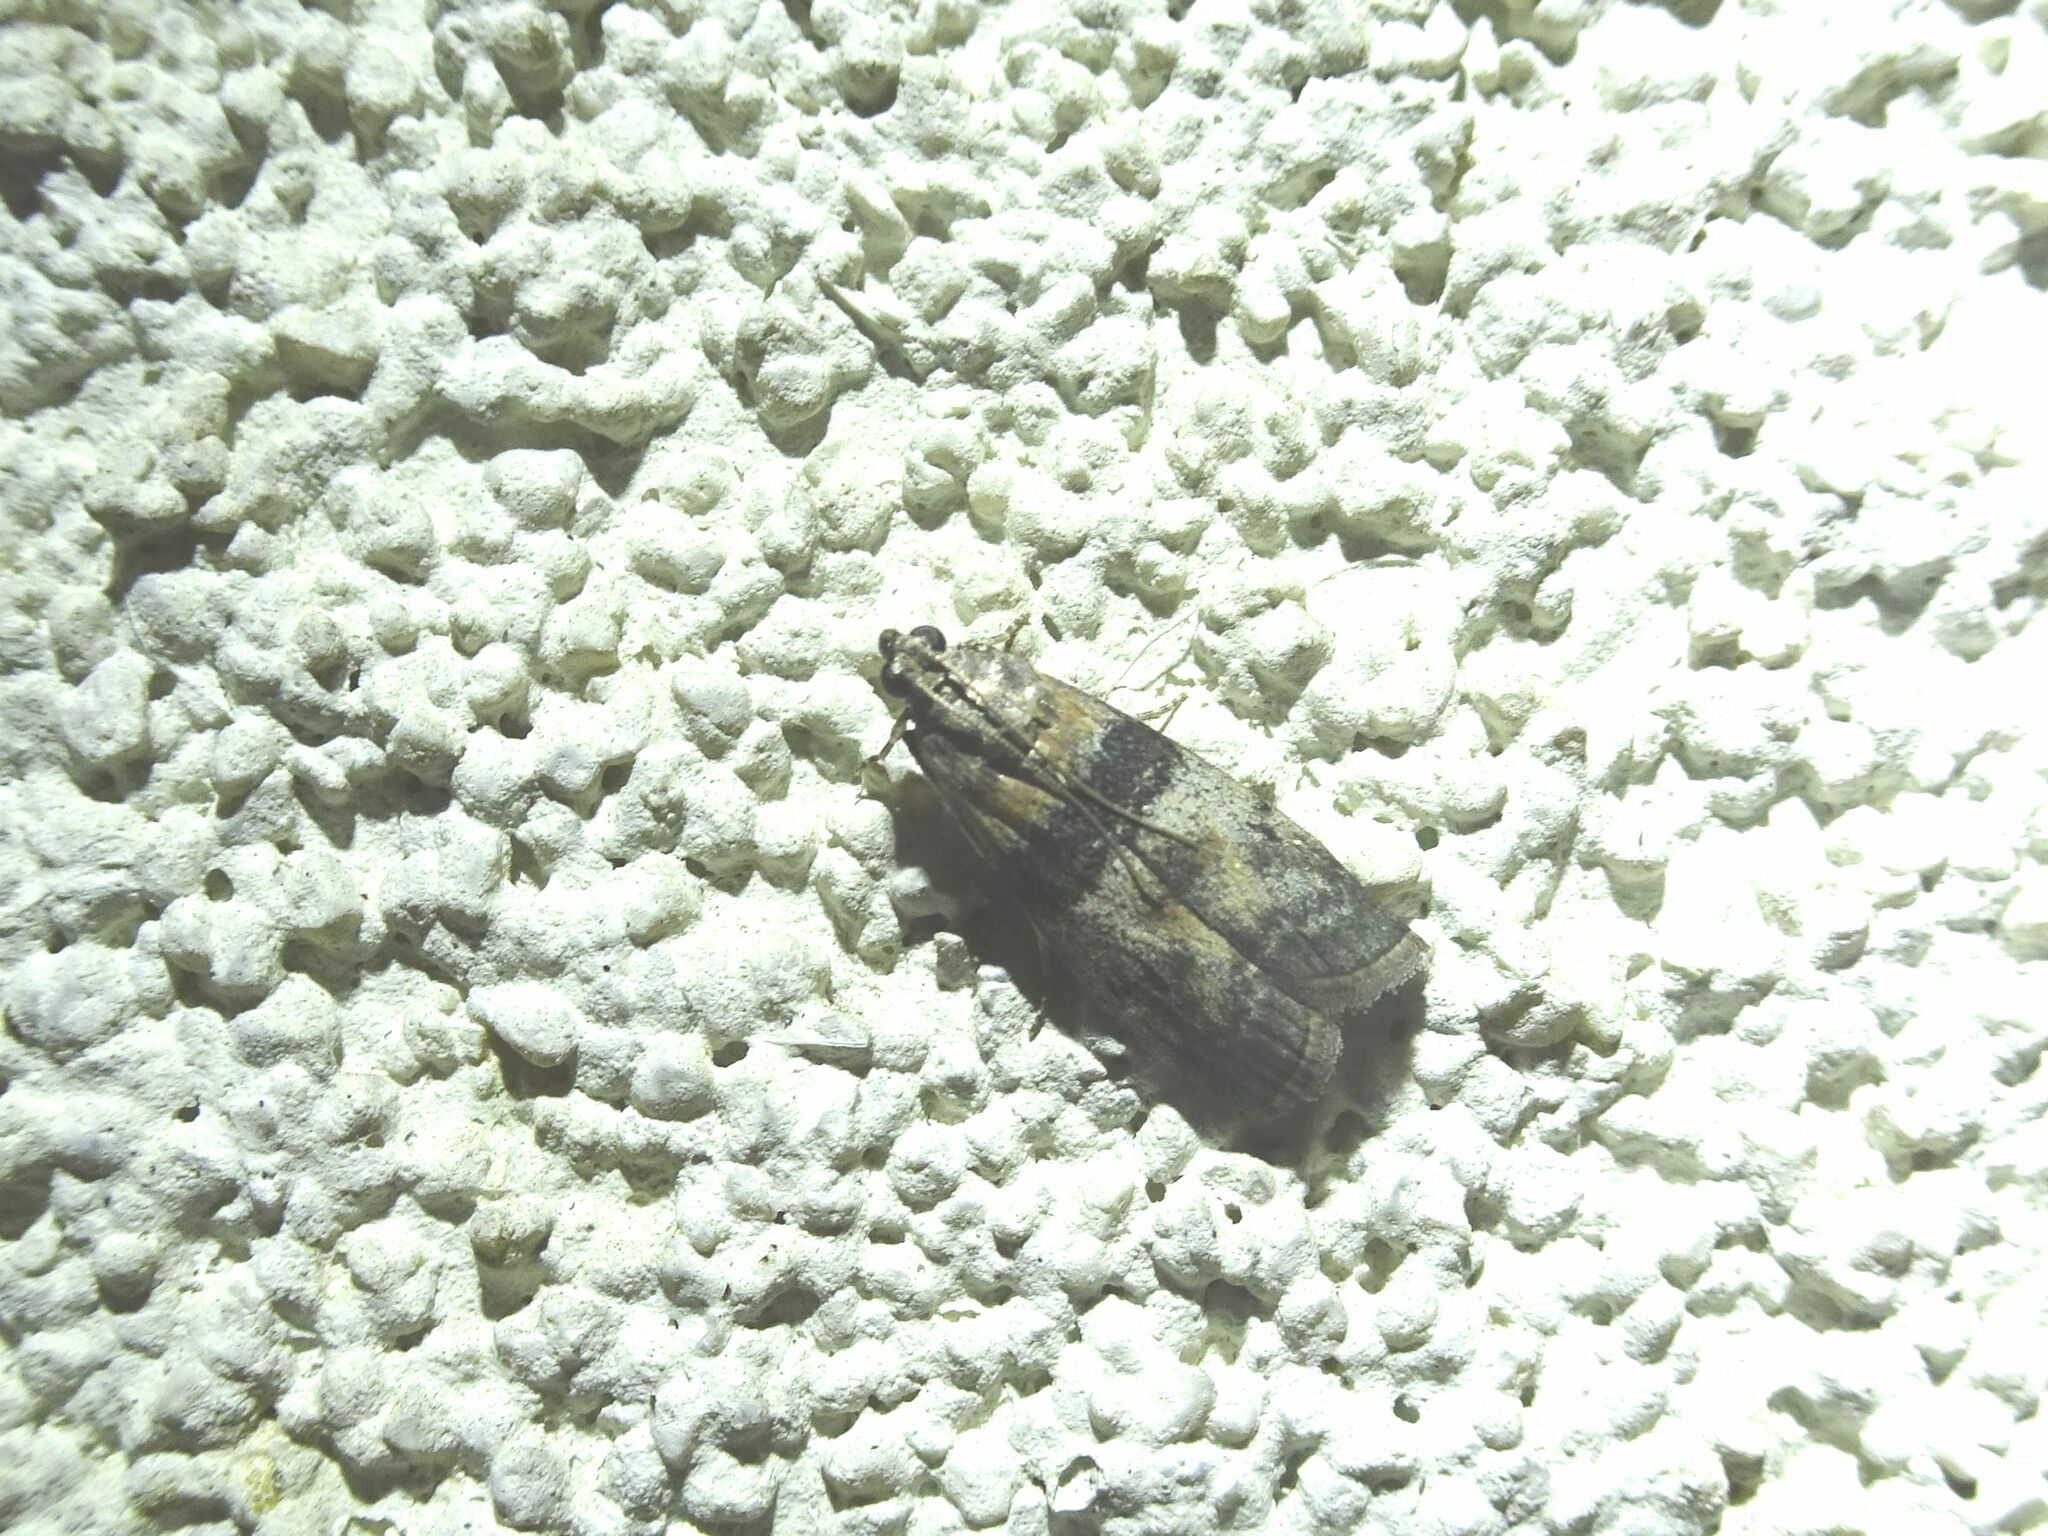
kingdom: Animalia
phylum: Arthropoda
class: Insecta
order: Lepidoptera
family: Pyralidae
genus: Sciota
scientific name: Sciota rhenella
